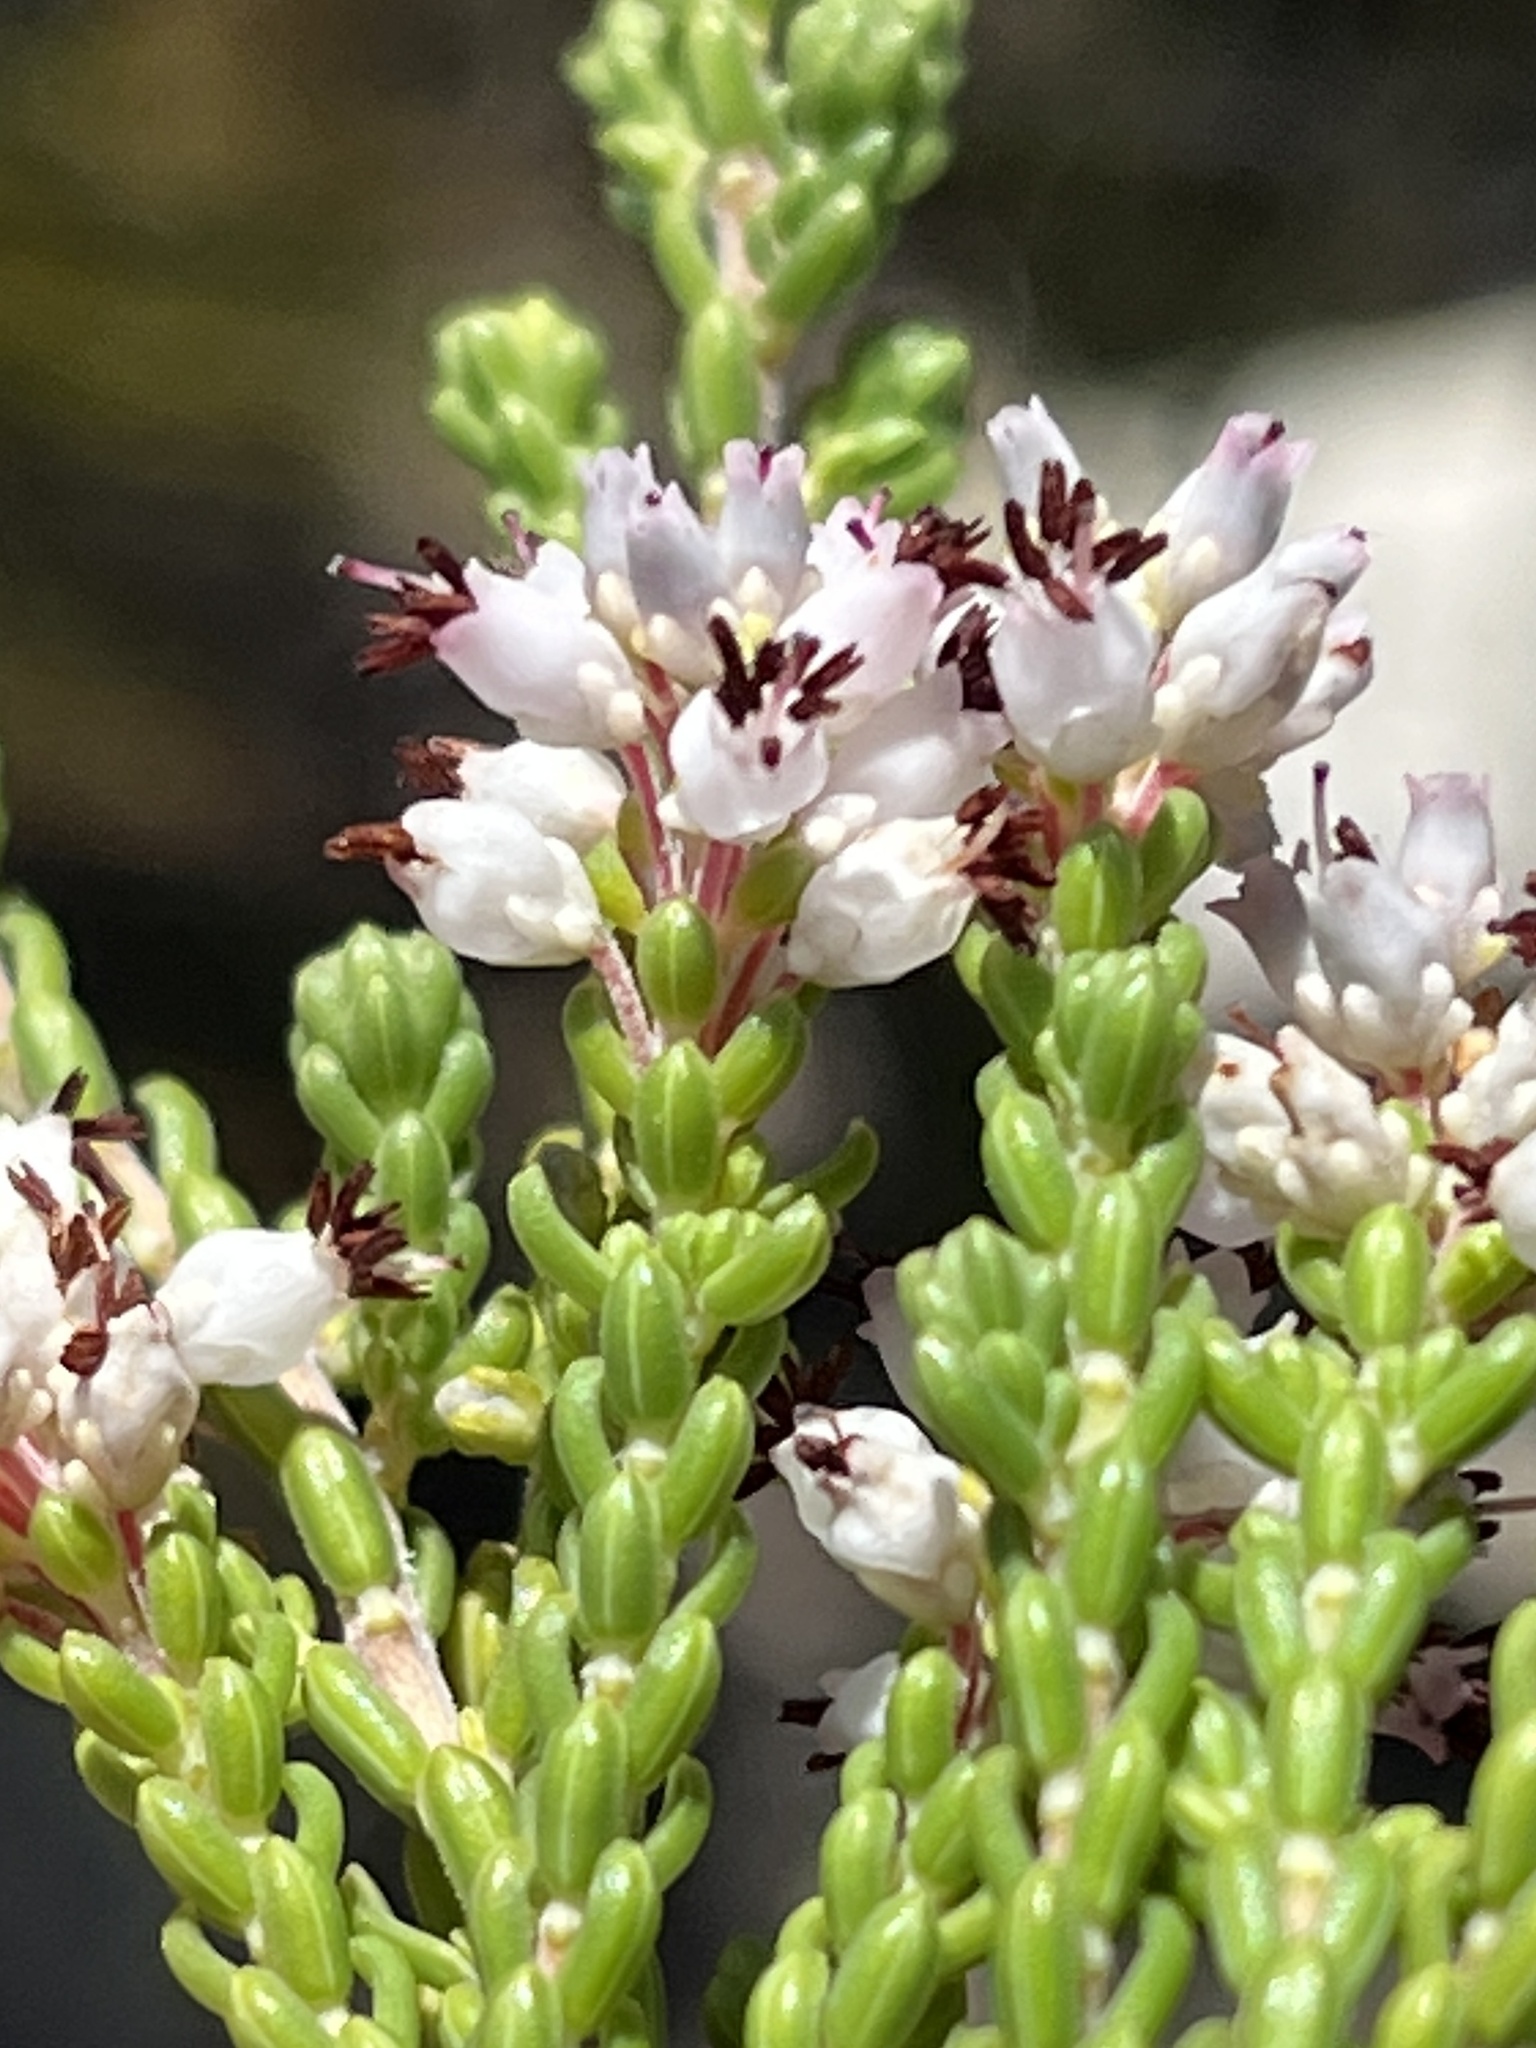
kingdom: Plantae
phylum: Tracheophyta
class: Magnoliopsida
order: Ericales
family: Ericaceae
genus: Erica
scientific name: Erica petraea
